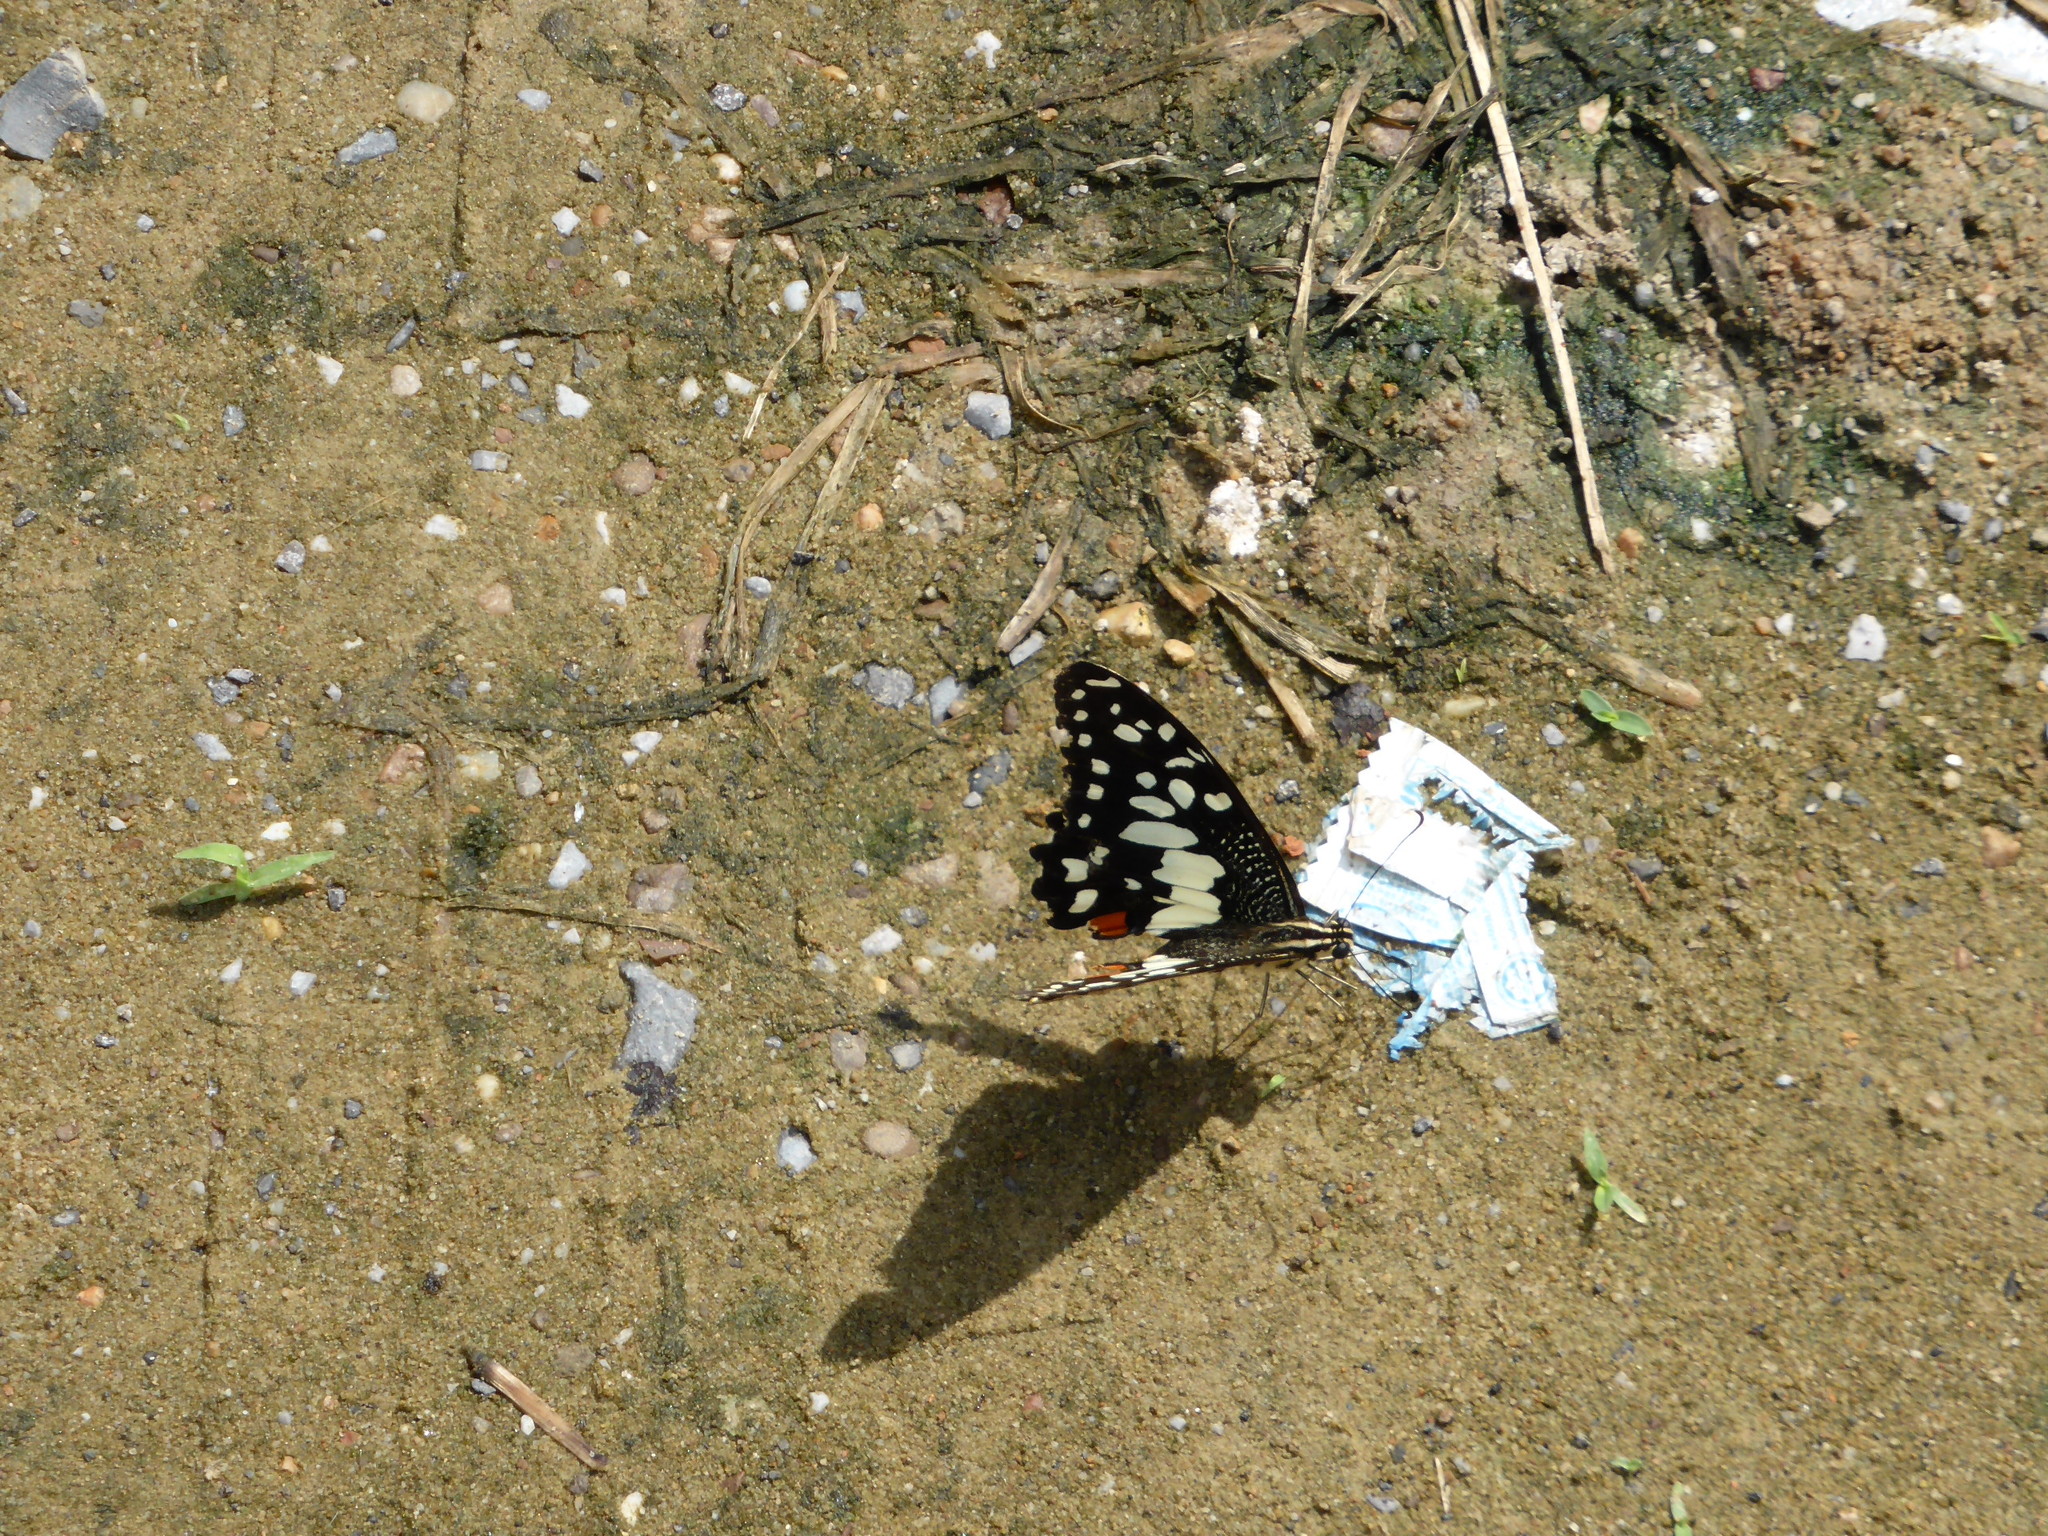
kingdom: Animalia
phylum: Arthropoda
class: Insecta
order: Lepidoptera
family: Papilionidae
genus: Papilio
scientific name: Papilio demoleus
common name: Lime butterfly
